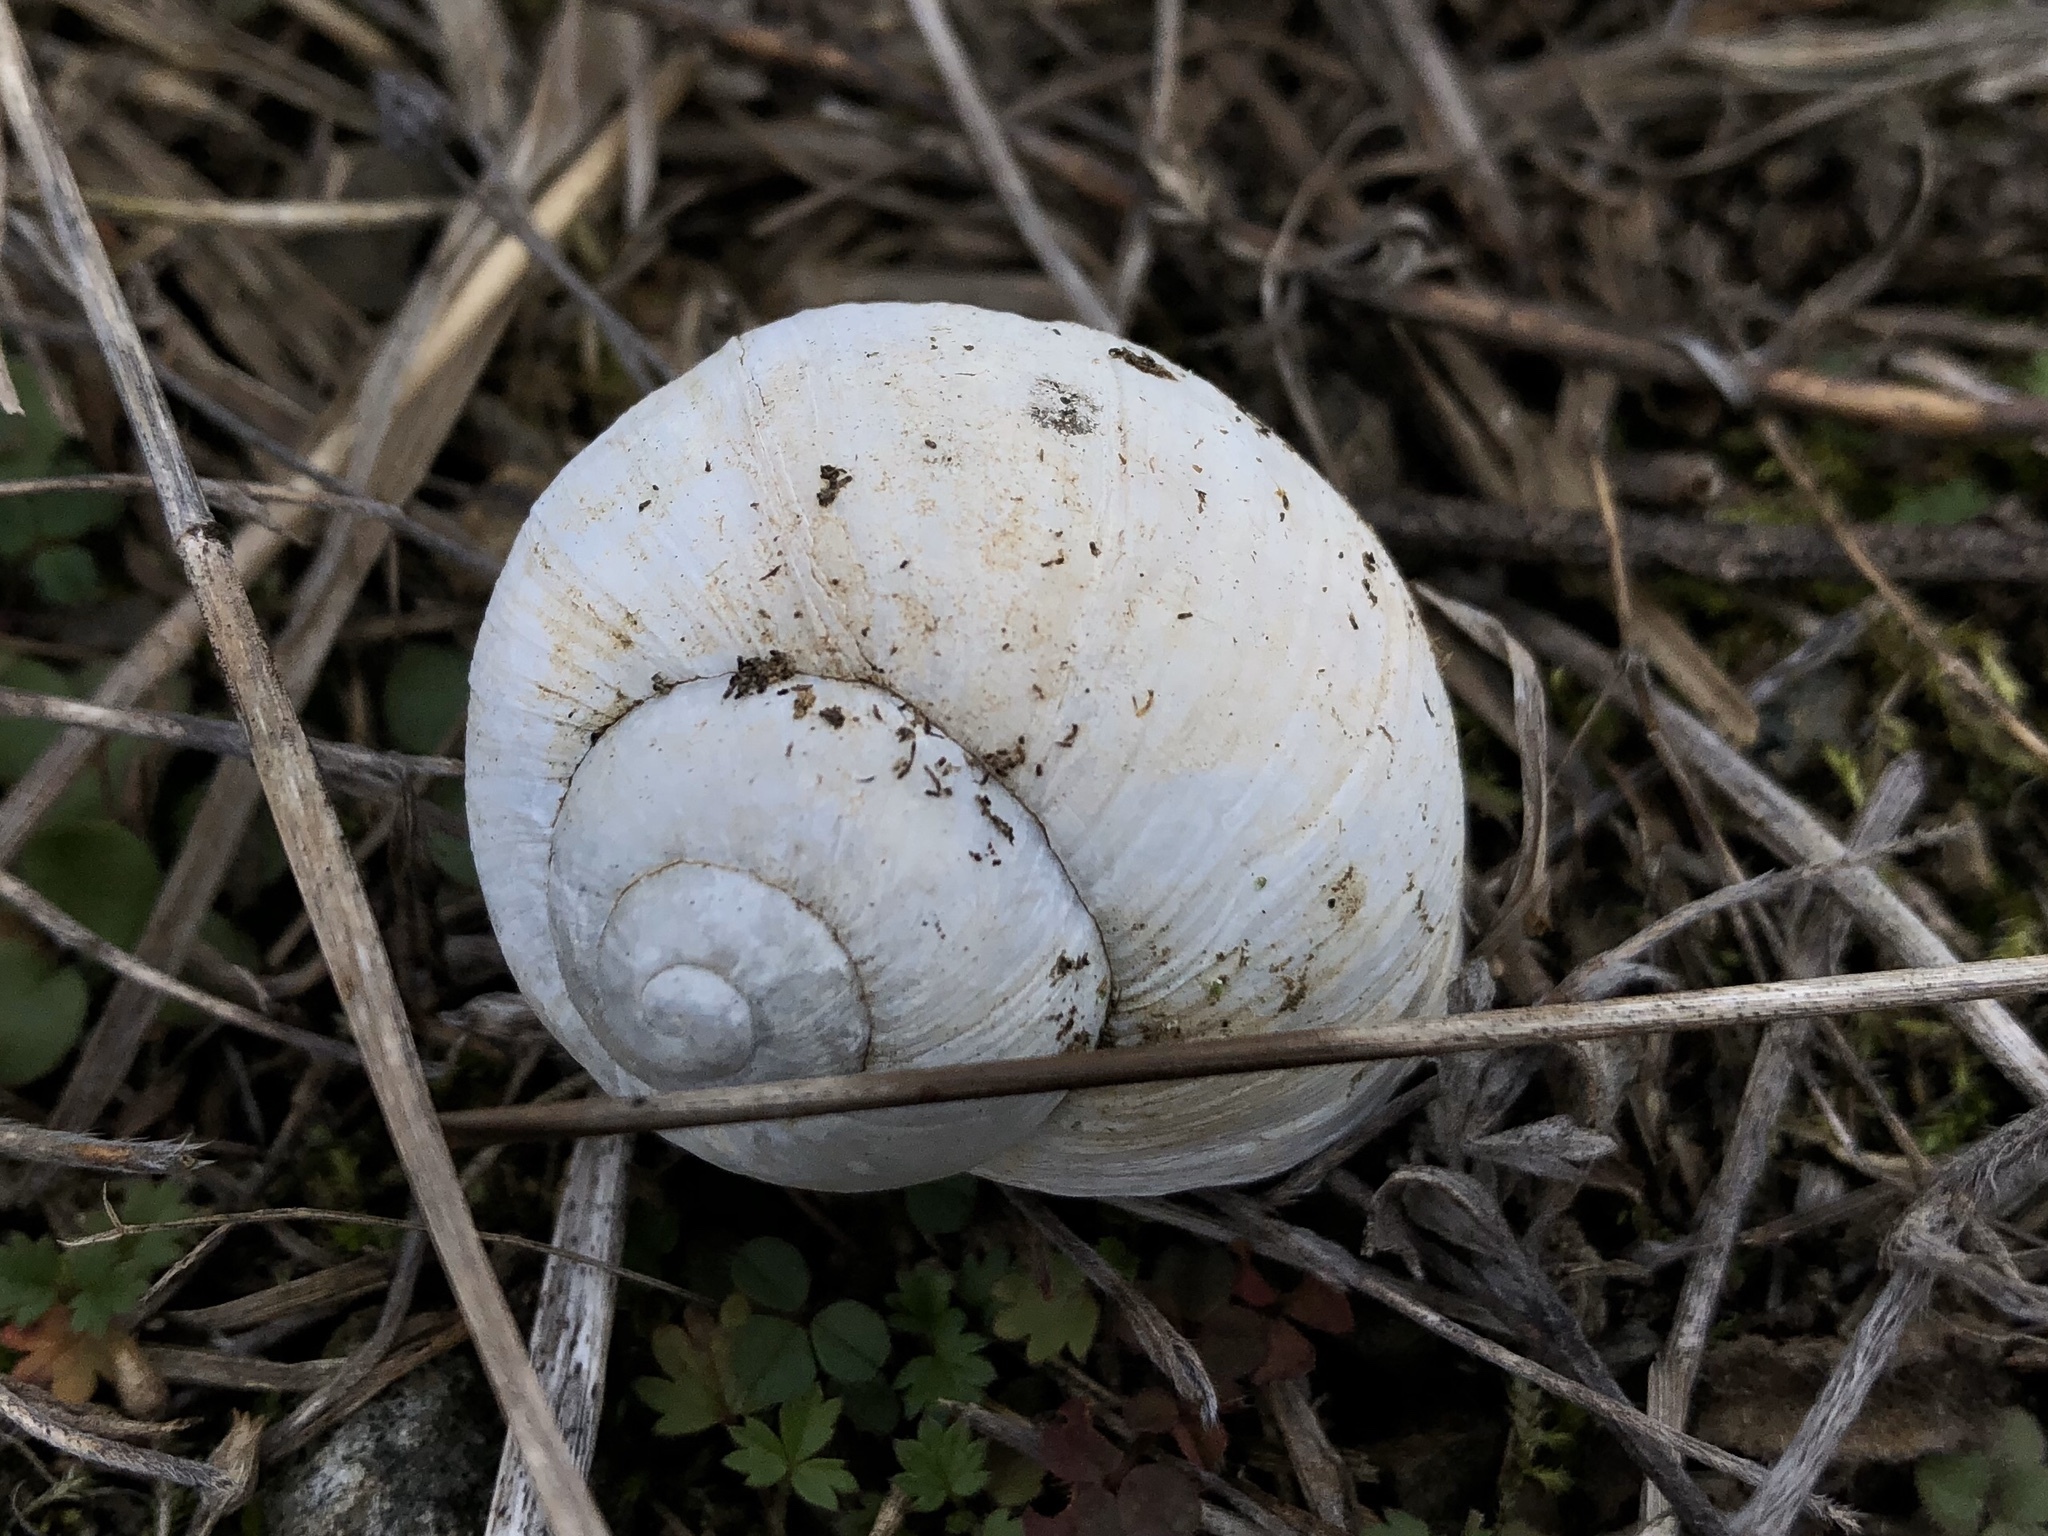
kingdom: Animalia
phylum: Mollusca
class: Gastropoda
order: Stylommatophora
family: Helicidae
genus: Helix
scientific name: Helix pomatia
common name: Roman snail
